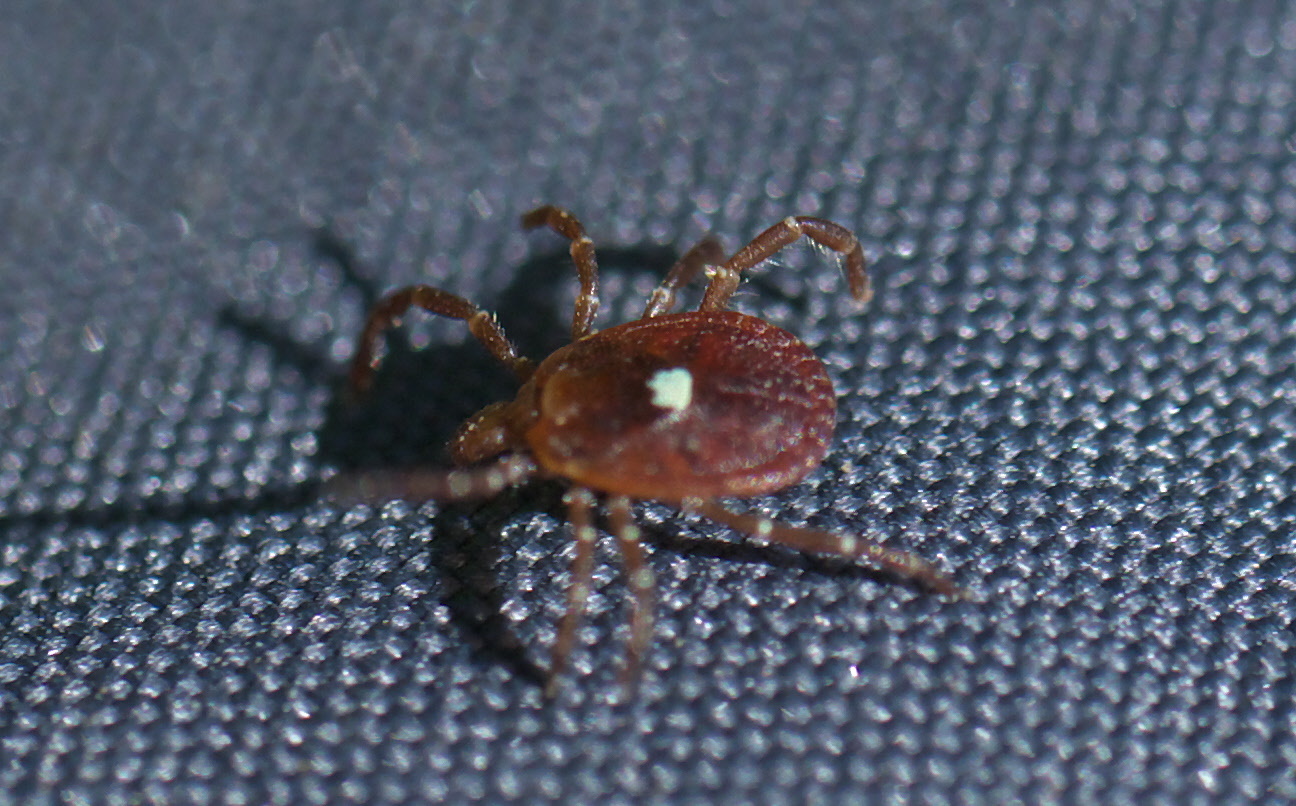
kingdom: Animalia
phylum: Arthropoda
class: Arachnida
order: Ixodida
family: Ixodidae
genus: Amblyomma
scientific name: Amblyomma americanum
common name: Lone star tick
